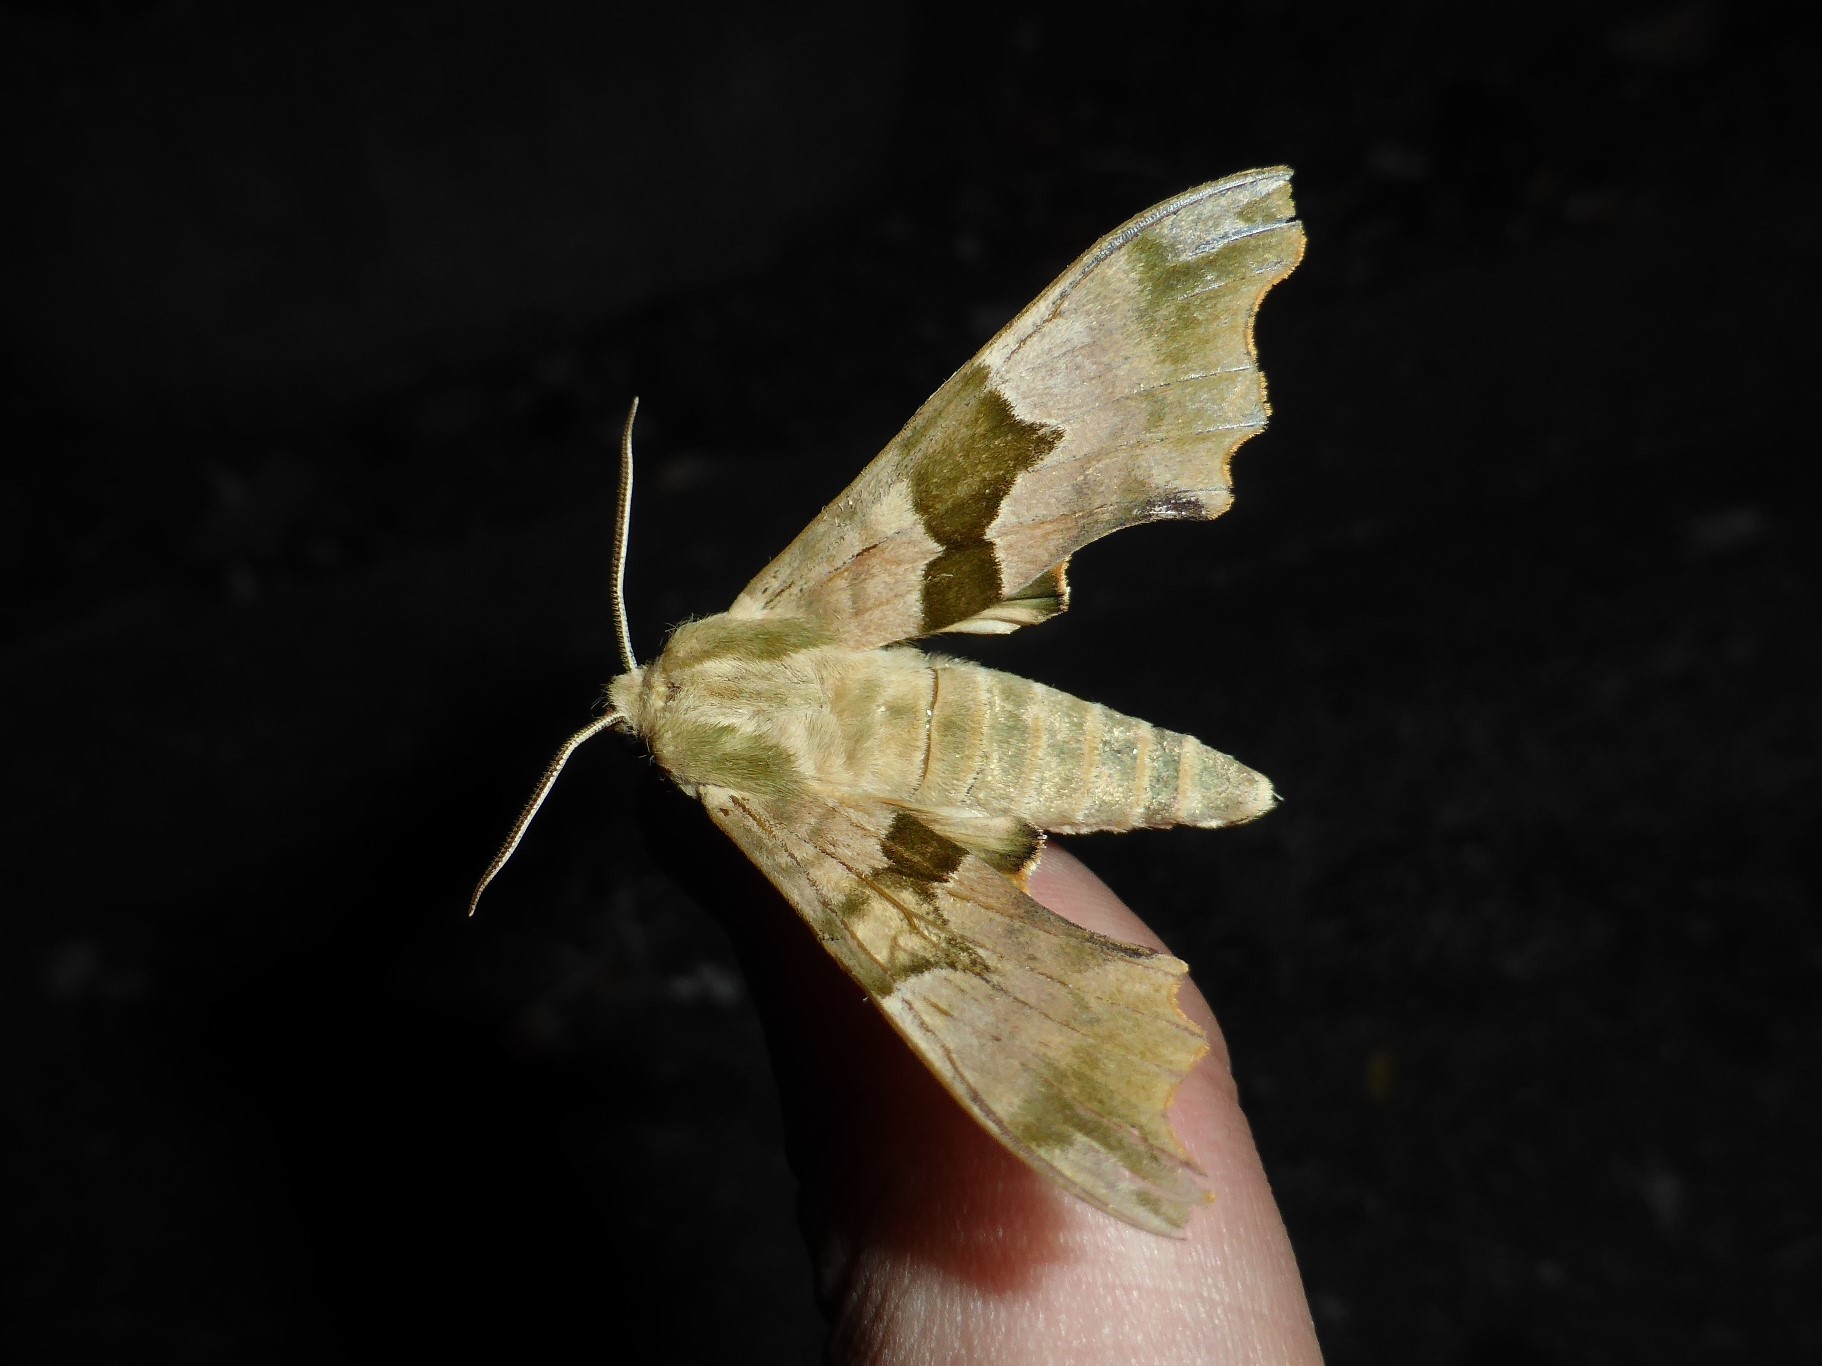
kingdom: Animalia
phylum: Arthropoda
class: Insecta
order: Lepidoptera
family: Sphingidae
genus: Mimas
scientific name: Mimas tiliae
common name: Lime hawk-moth
